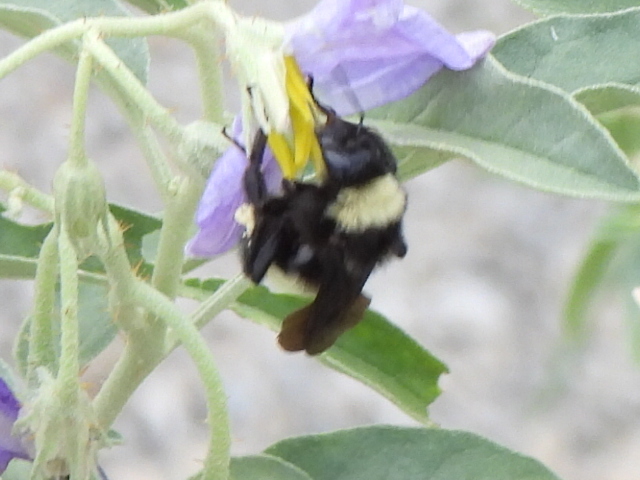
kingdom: Animalia
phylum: Arthropoda
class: Insecta
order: Hymenoptera
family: Apidae
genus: Bombus
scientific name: Bombus pensylvanicus
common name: Bumble bee
